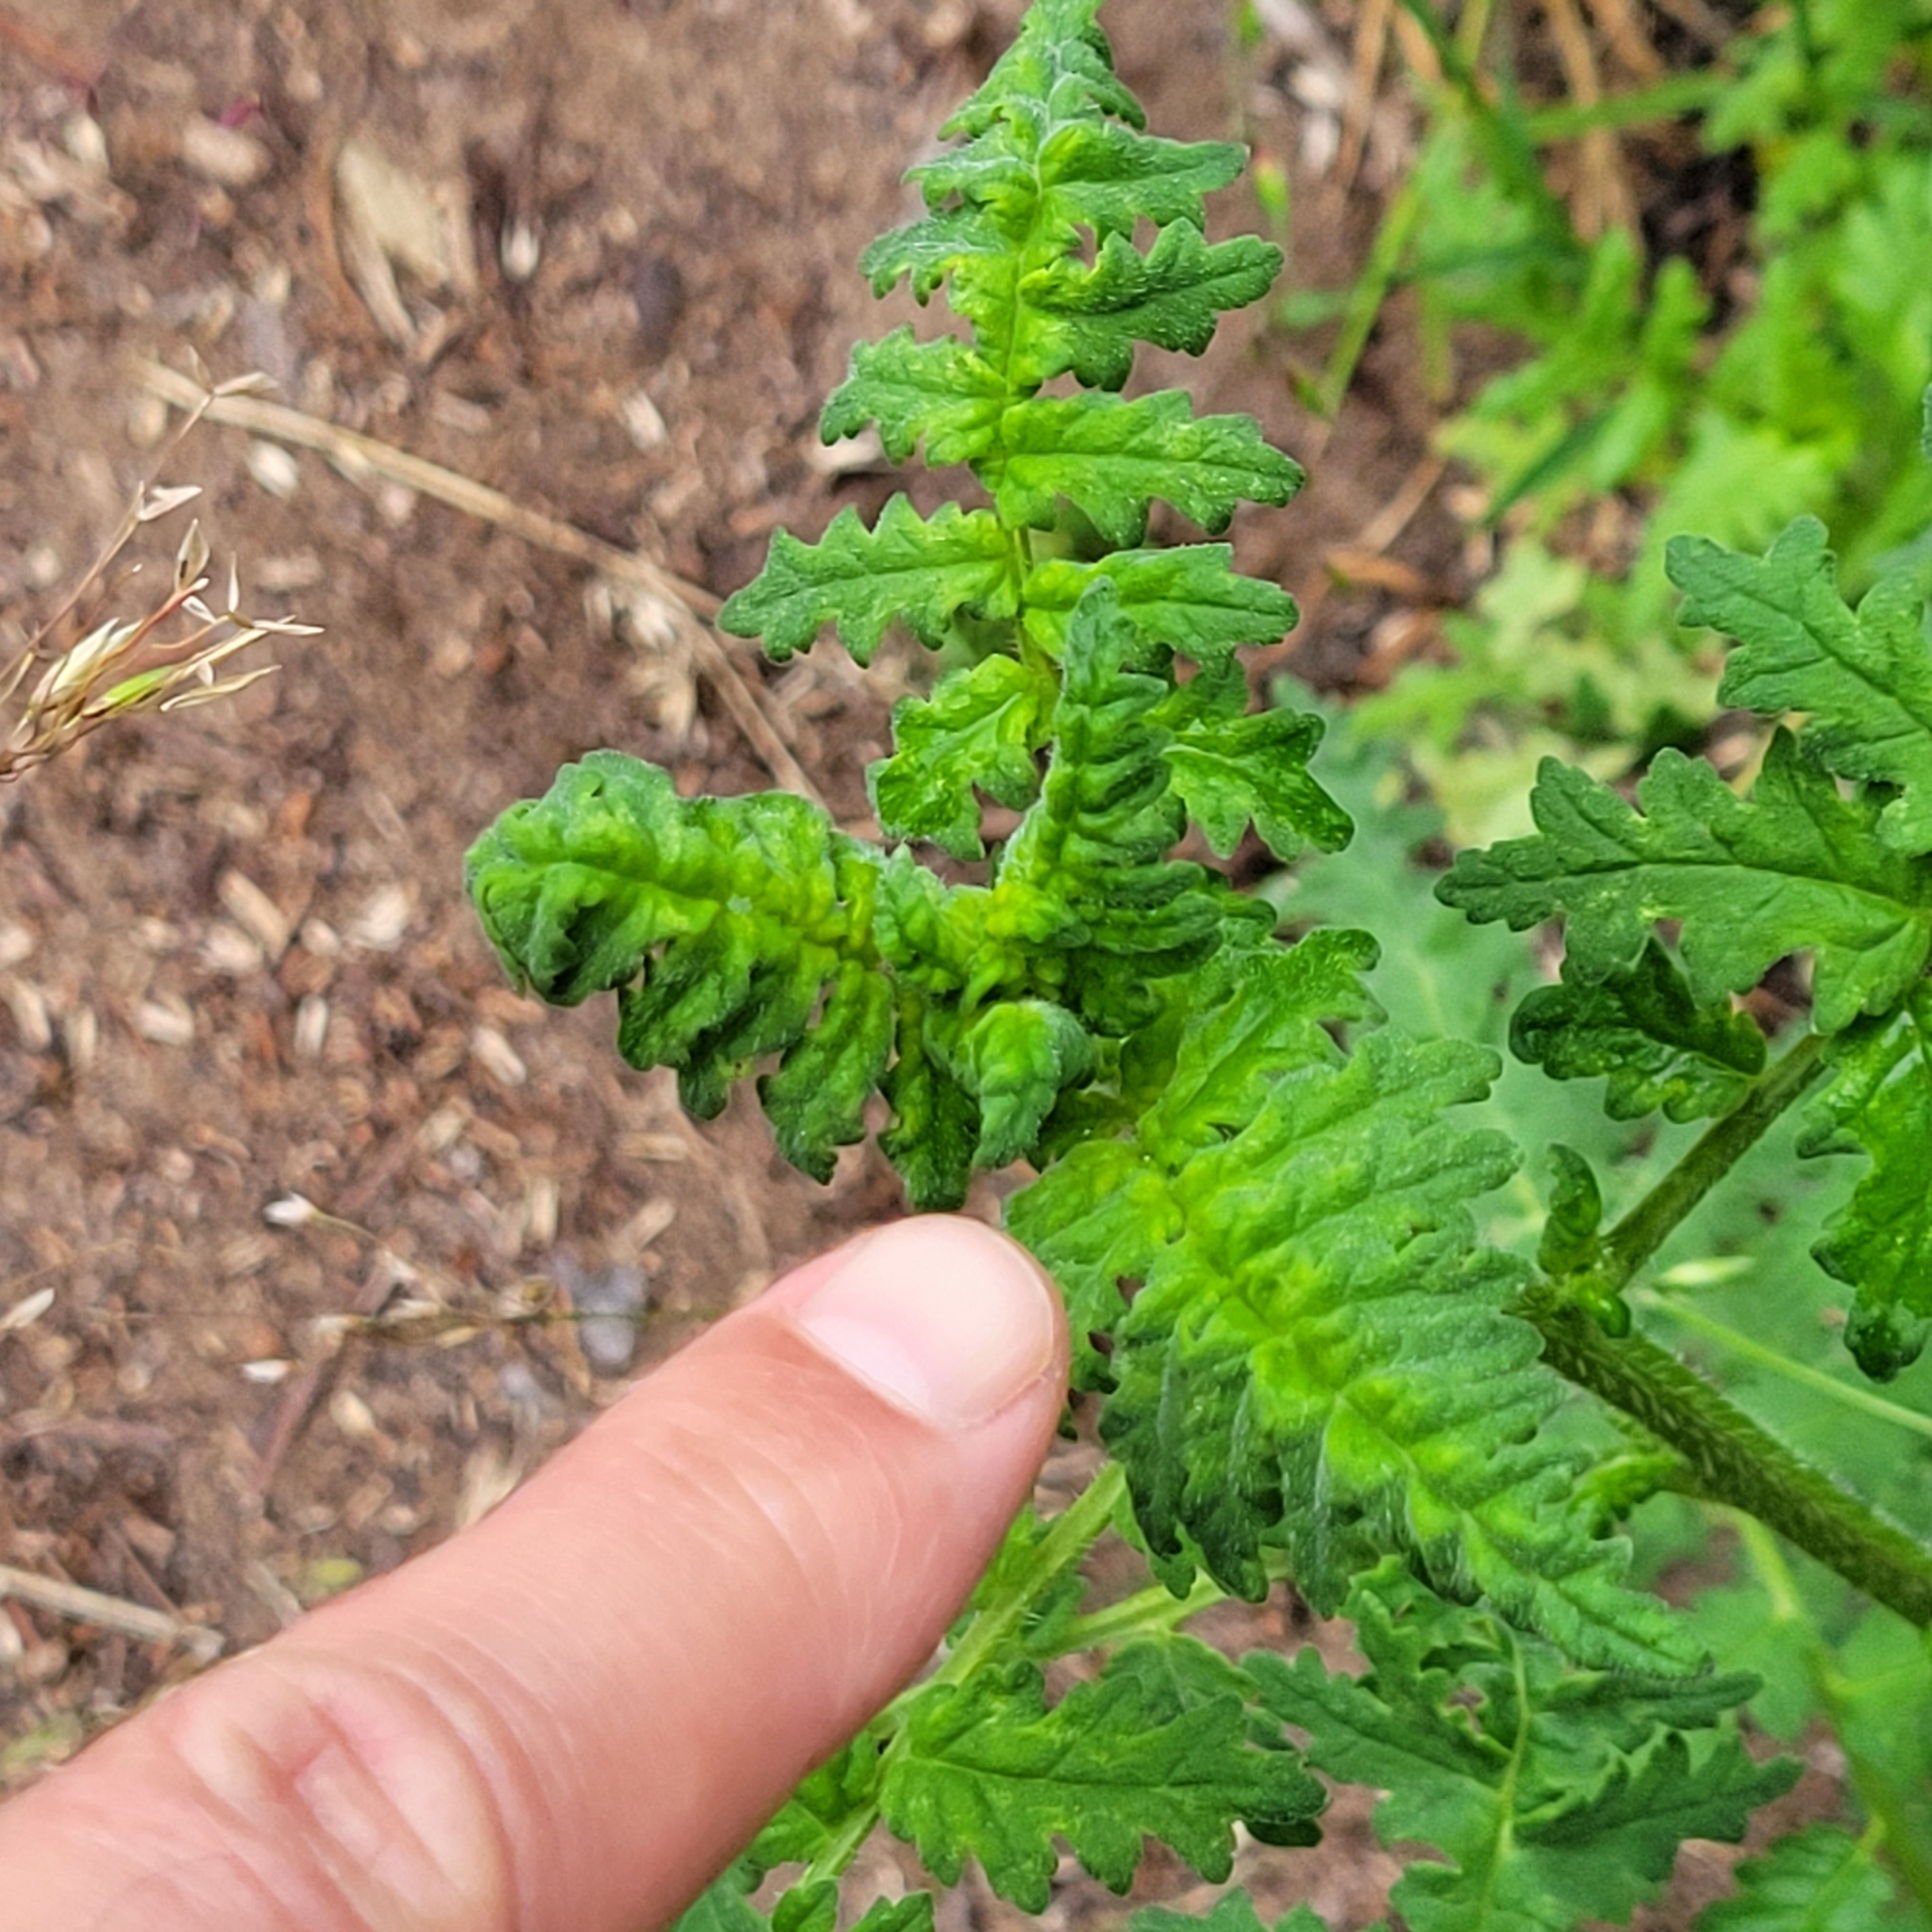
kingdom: Plantae
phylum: Tracheophyta
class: Magnoliopsida
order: Boraginales
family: Hydrophyllaceae
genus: Phacelia
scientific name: Phacelia ramosissima
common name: Branching phacelia
